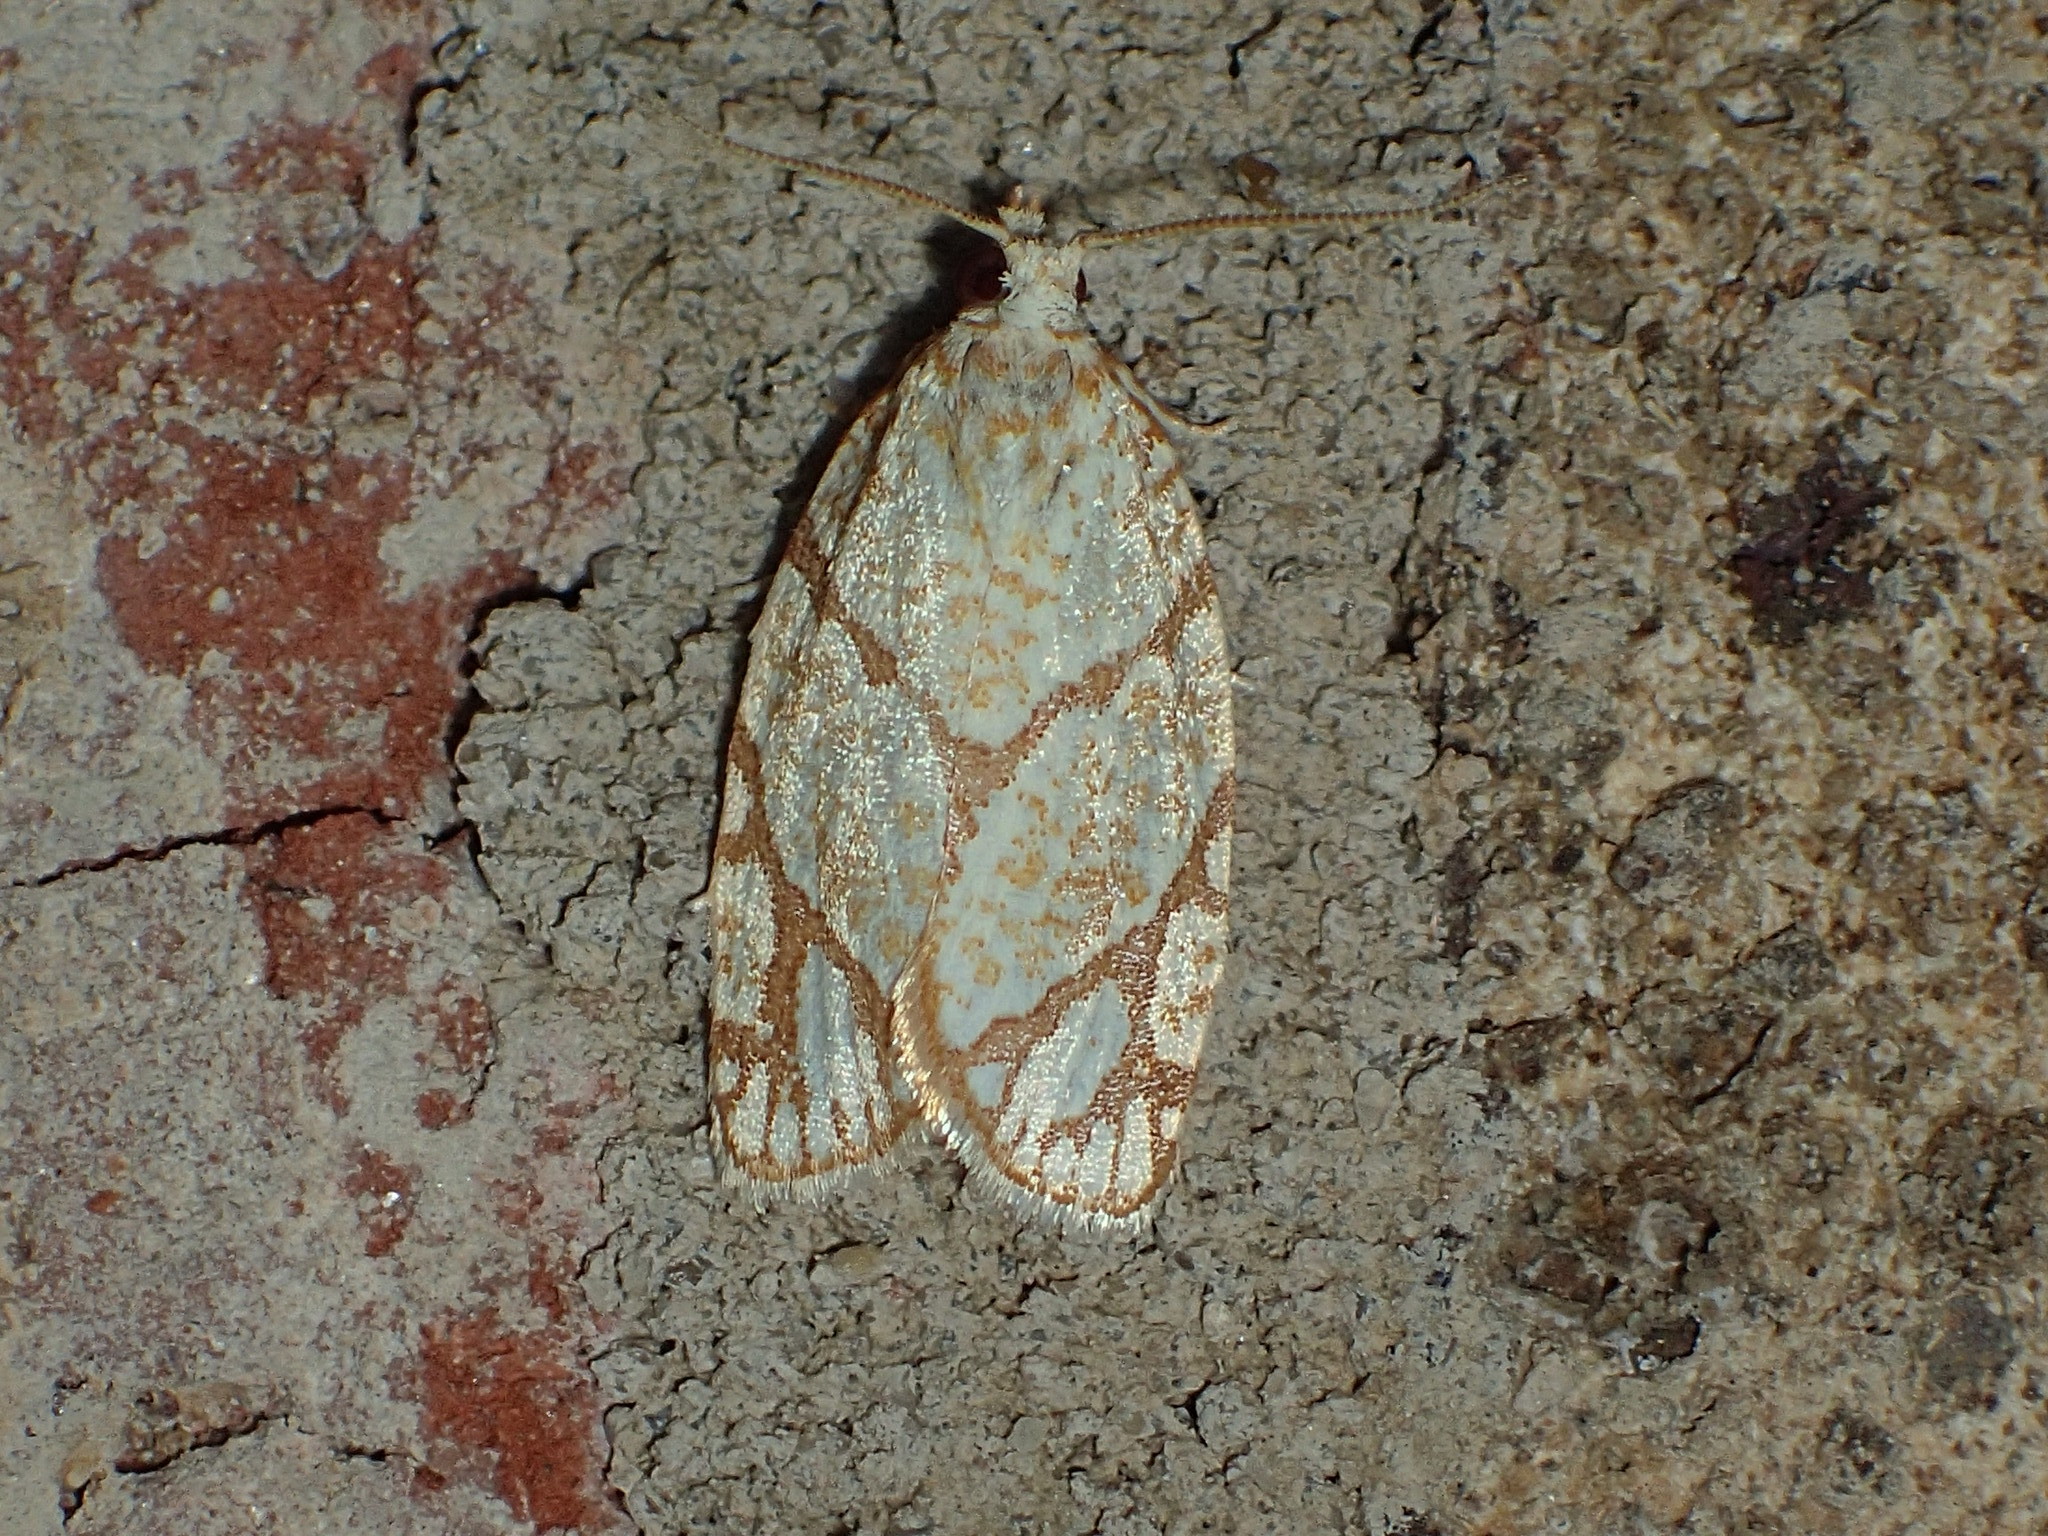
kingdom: Animalia
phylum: Arthropoda
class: Insecta
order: Lepidoptera
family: Tortricidae
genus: Argyrotaenia
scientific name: Argyrotaenia quercifoliana
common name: Yellow-winged oak leafroller moth
